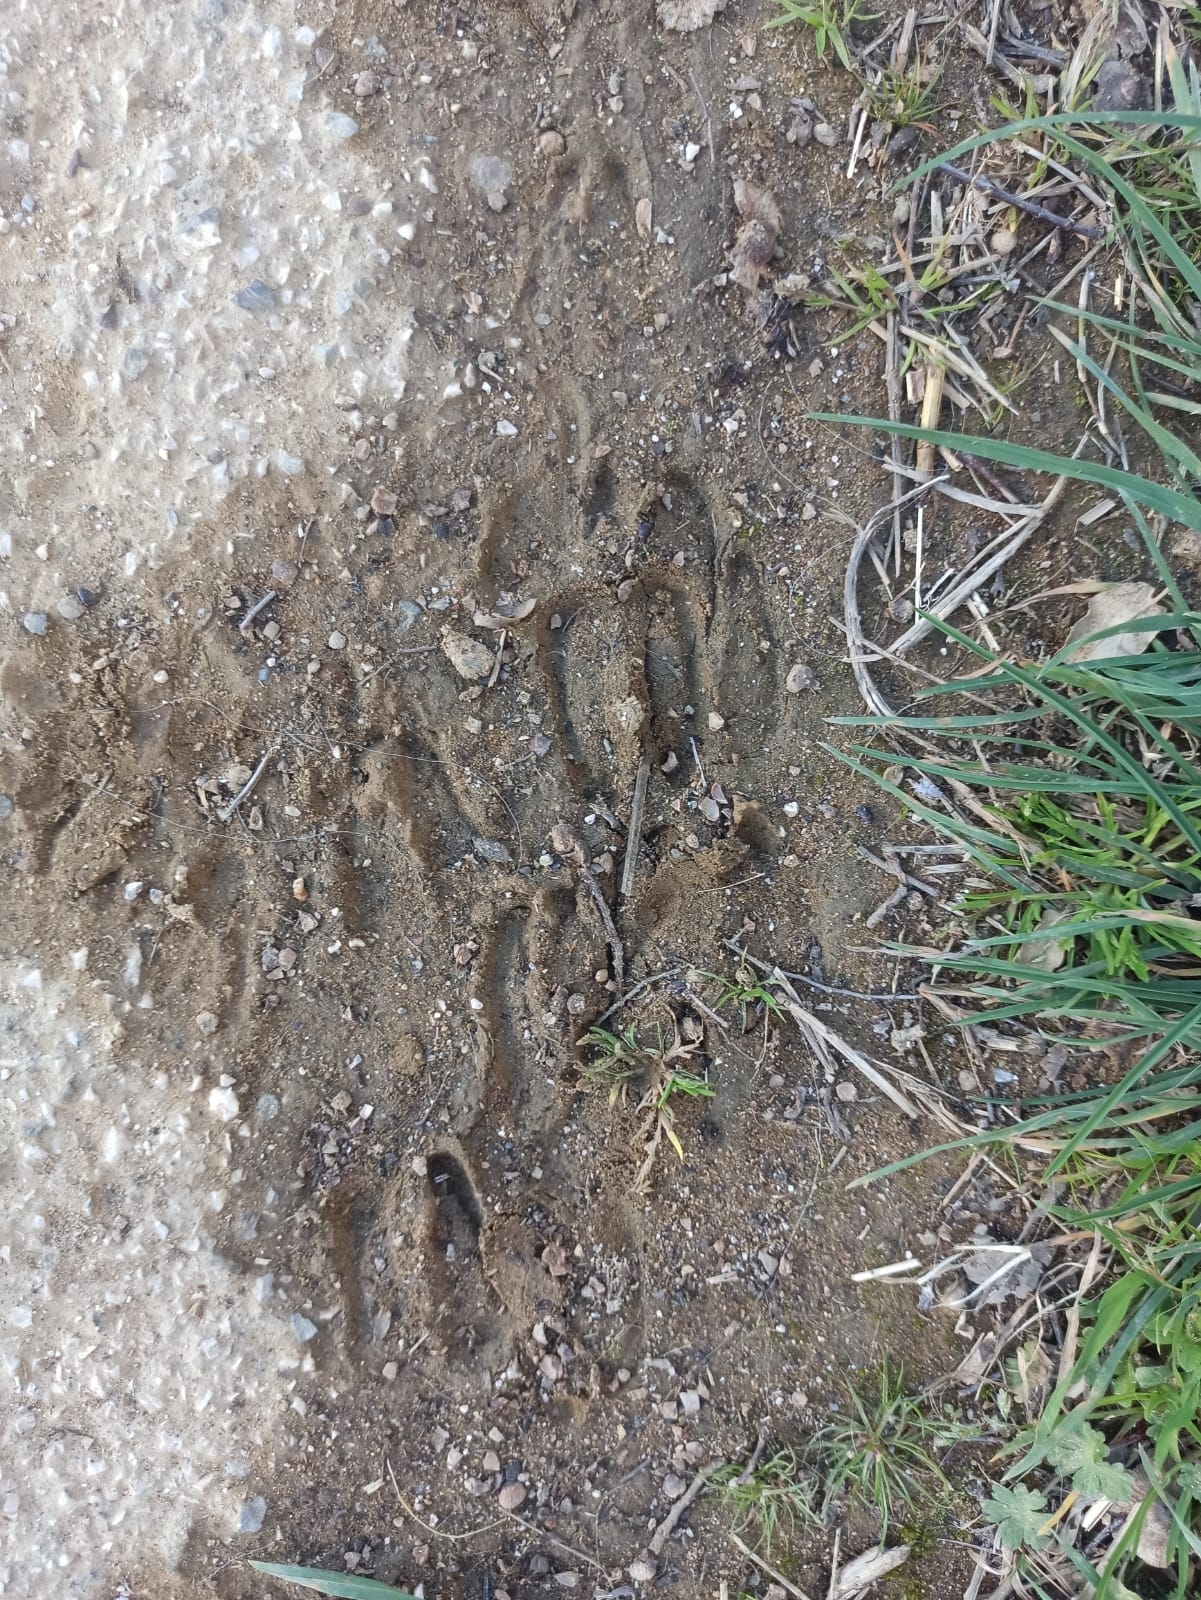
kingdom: Animalia
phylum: Chordata
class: Mammalia
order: Artiodactyla
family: Cervidae
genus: Capreolus
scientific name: Capreolus capreolus
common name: Western roe deer
